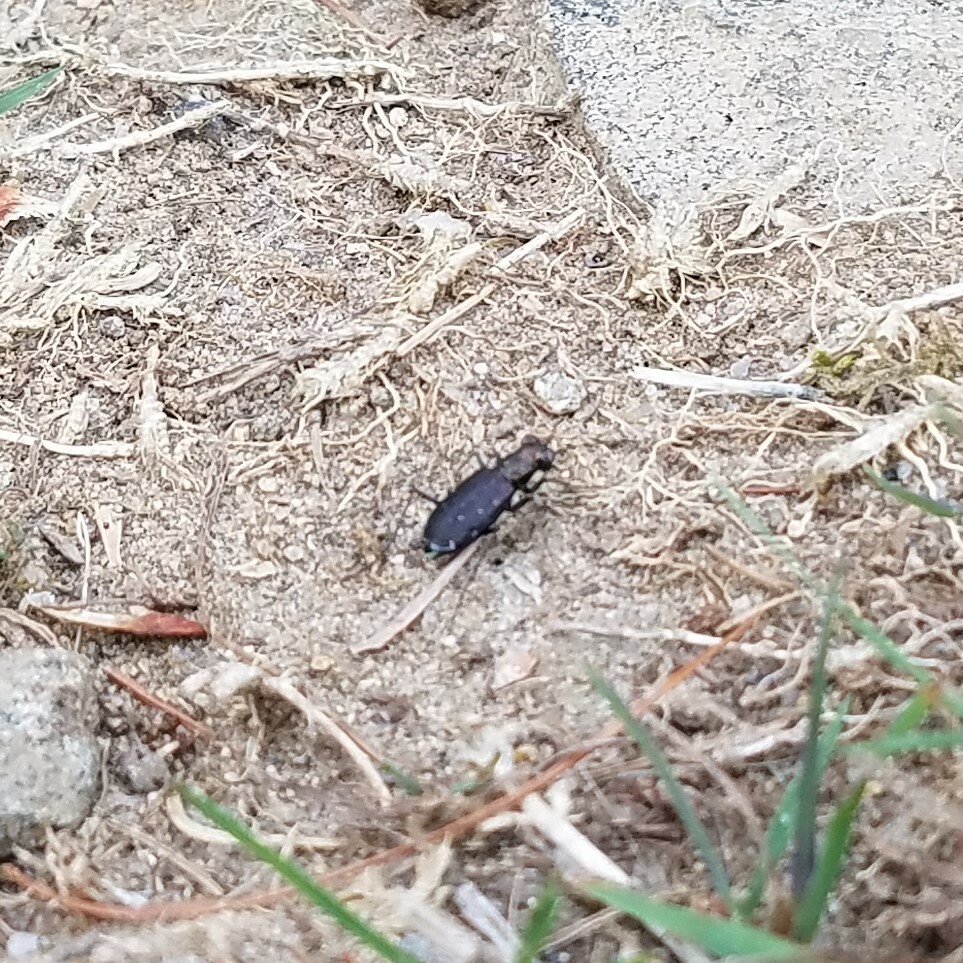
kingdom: Animalia
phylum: Arthropoda
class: Insecta
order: Coleoptera
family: Carabidae
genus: Cicindela
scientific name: Cicindela punctulata
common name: Punctured tiger beetle
